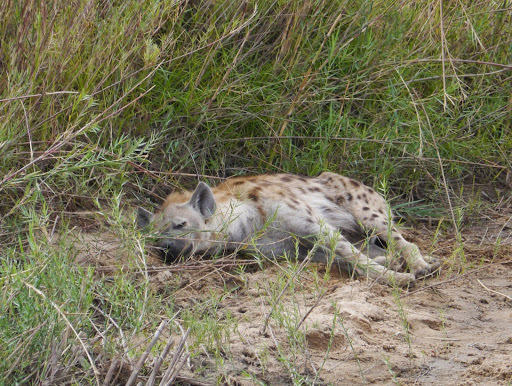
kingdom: Animalia
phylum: Chordata
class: Mammalia
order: Carnivora
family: Hyaenidae
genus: Crocuta
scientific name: Crocuta crocuta
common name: Spotted hyaena
